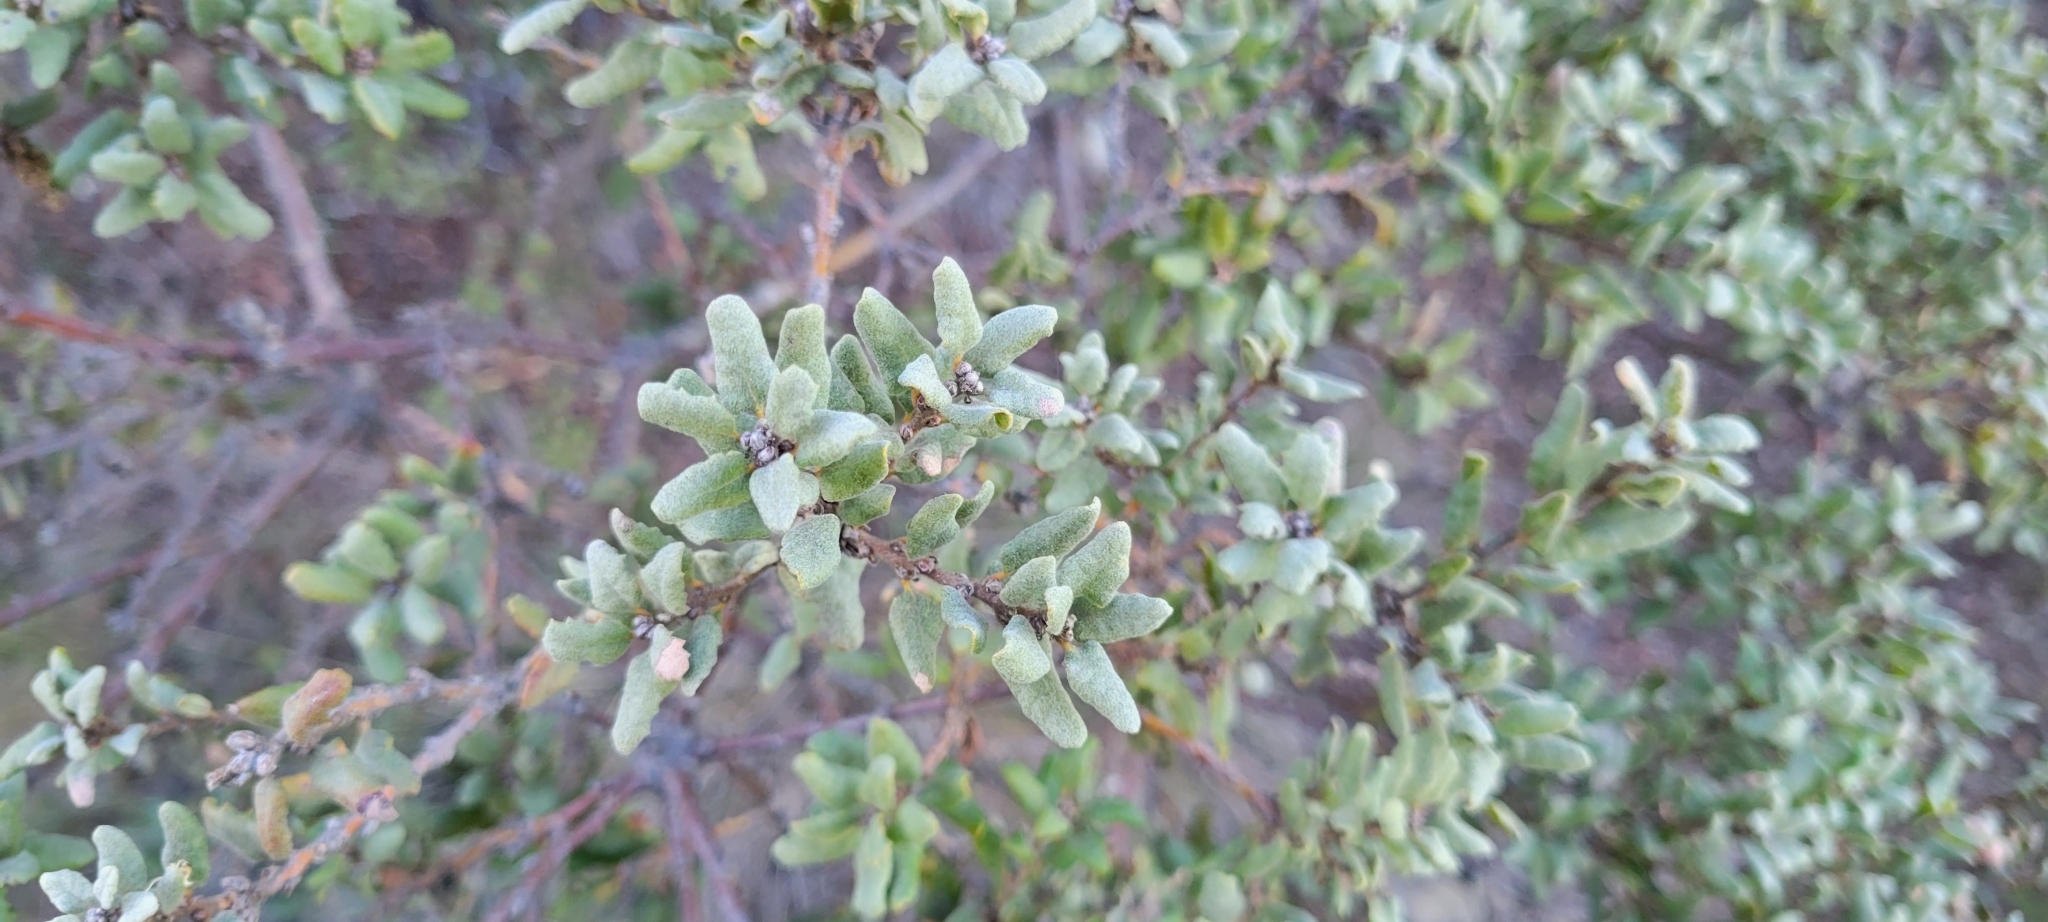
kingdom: Plantae
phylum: Tracheophyta
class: Magnoliopsida
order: Fagales
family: Fagaceae
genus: Quercus
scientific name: Quercus durata
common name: Leather oak
